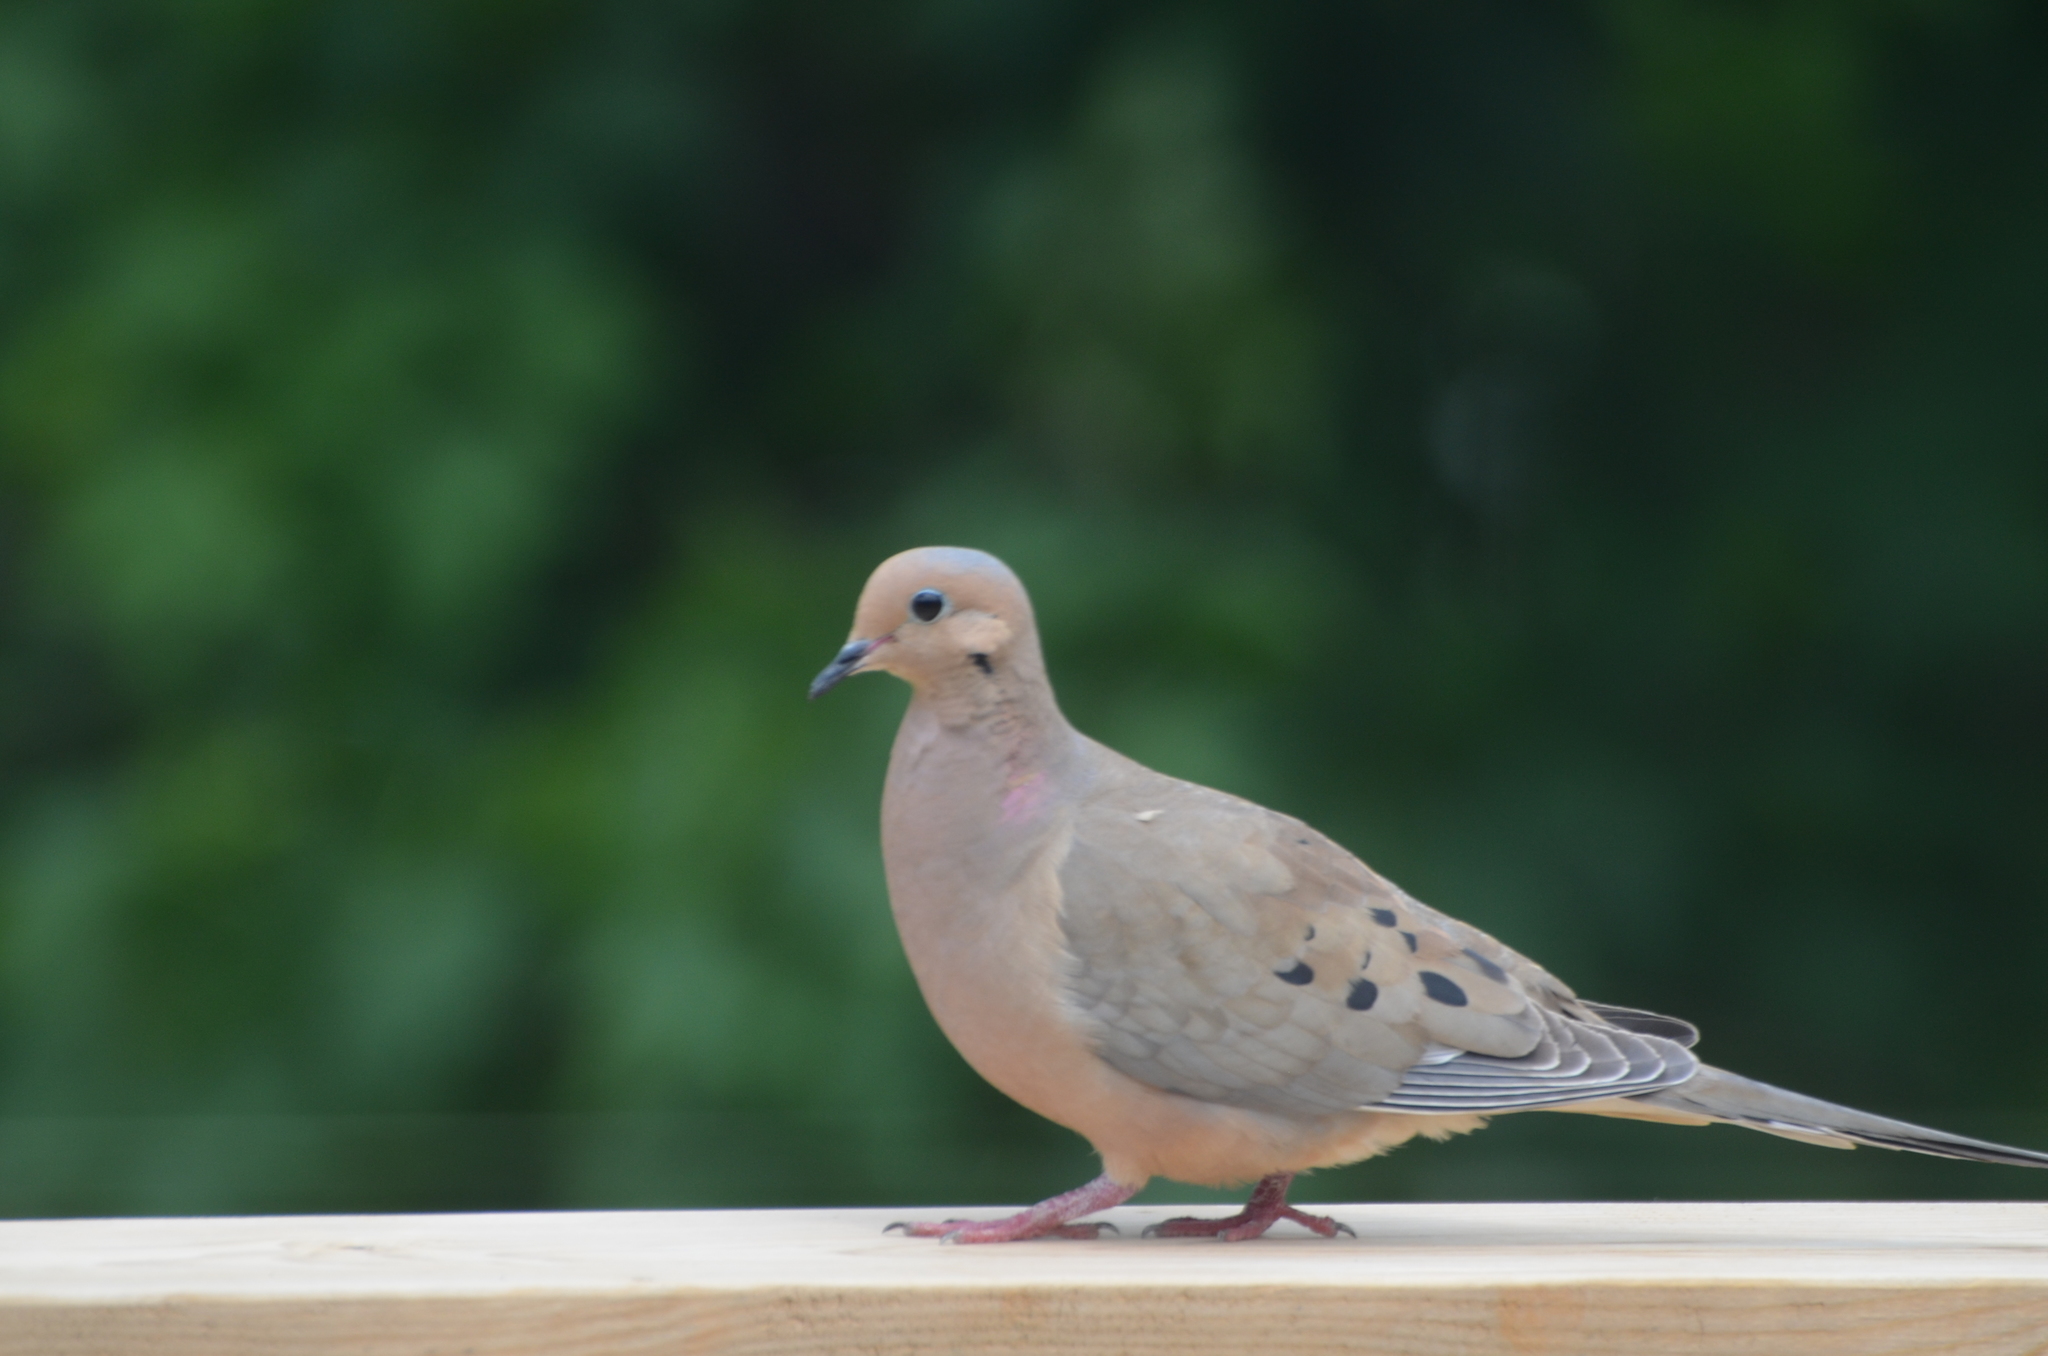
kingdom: Animalia
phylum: Chordata
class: Aves
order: Columbiformes
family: Columbidae
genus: Zenaida
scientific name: Zenaida macroura
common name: Mourning dove
